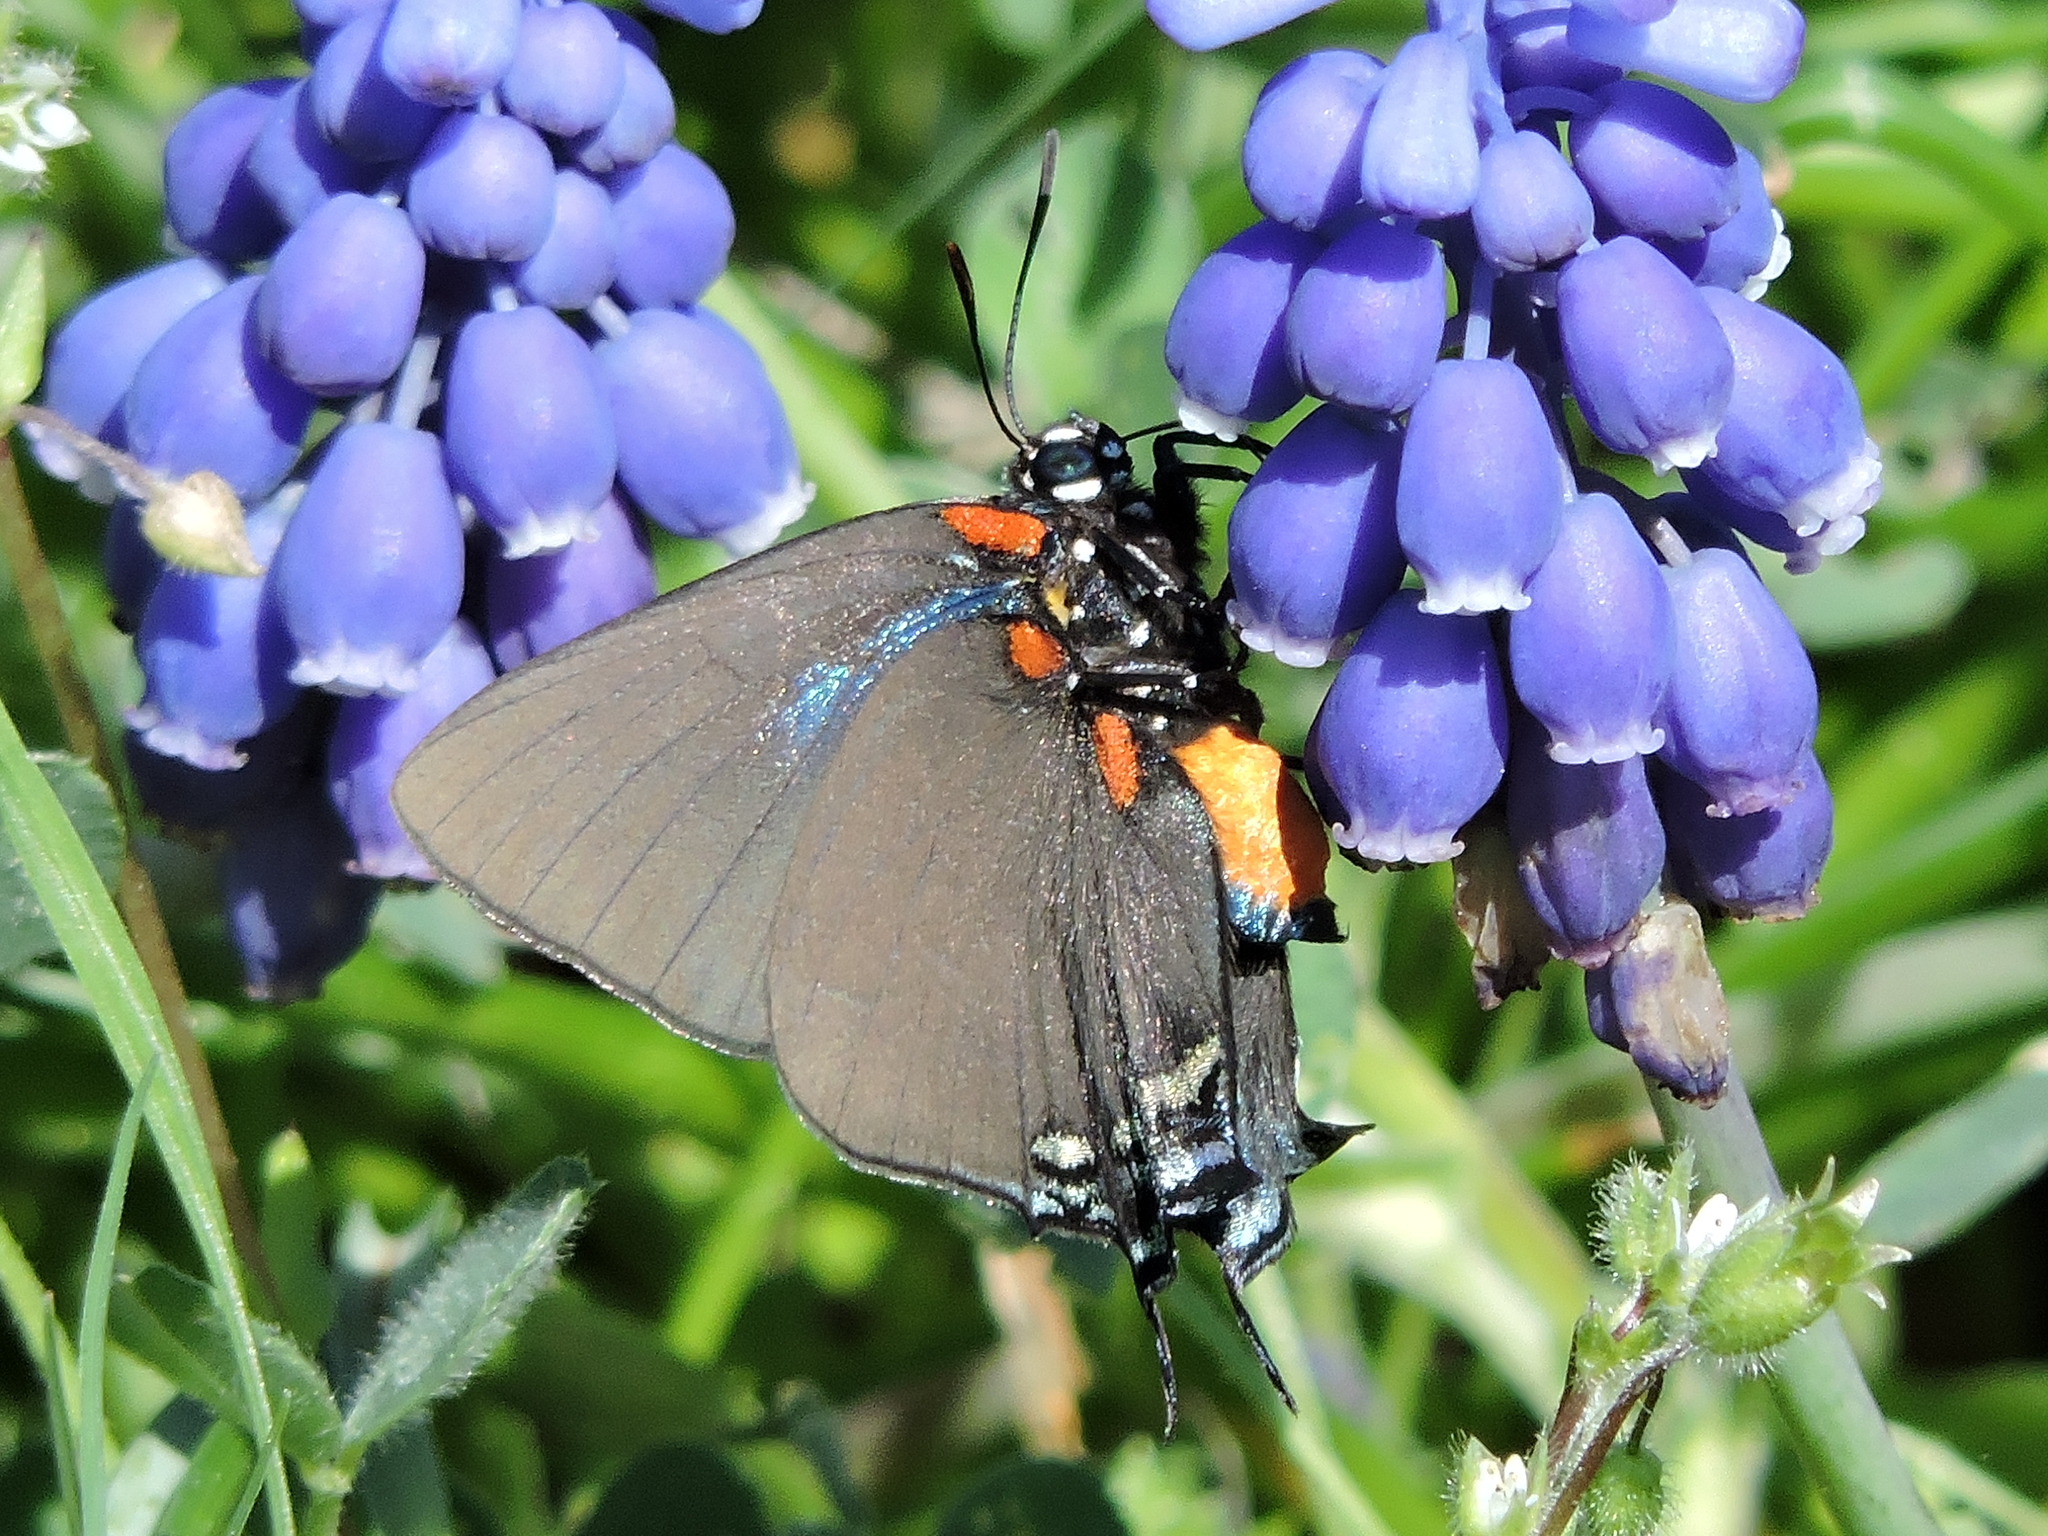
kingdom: Animalia
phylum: Arthropoda
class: Insecta
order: Lepidoptera
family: Lycaenidae
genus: Atlides
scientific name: Atlides halesus
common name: Great purple hairstreak
